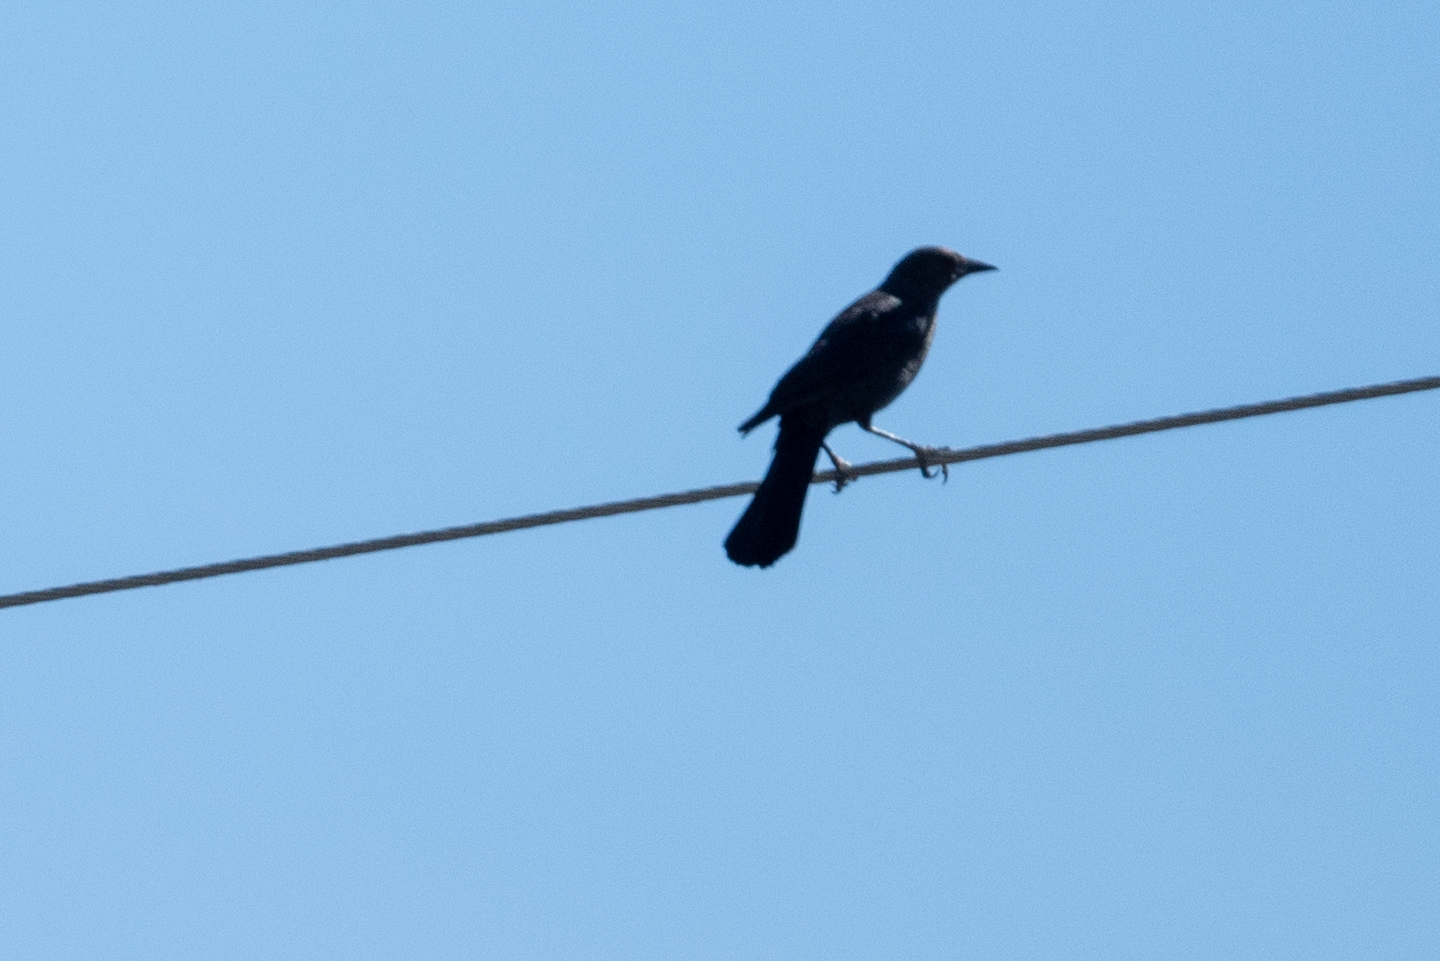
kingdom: Animalia
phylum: Chordata
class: Aves
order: Passeriformes
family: Icteridae
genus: Quiscalus
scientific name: Quiscalus mexicanus
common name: Great-tailed grackle
